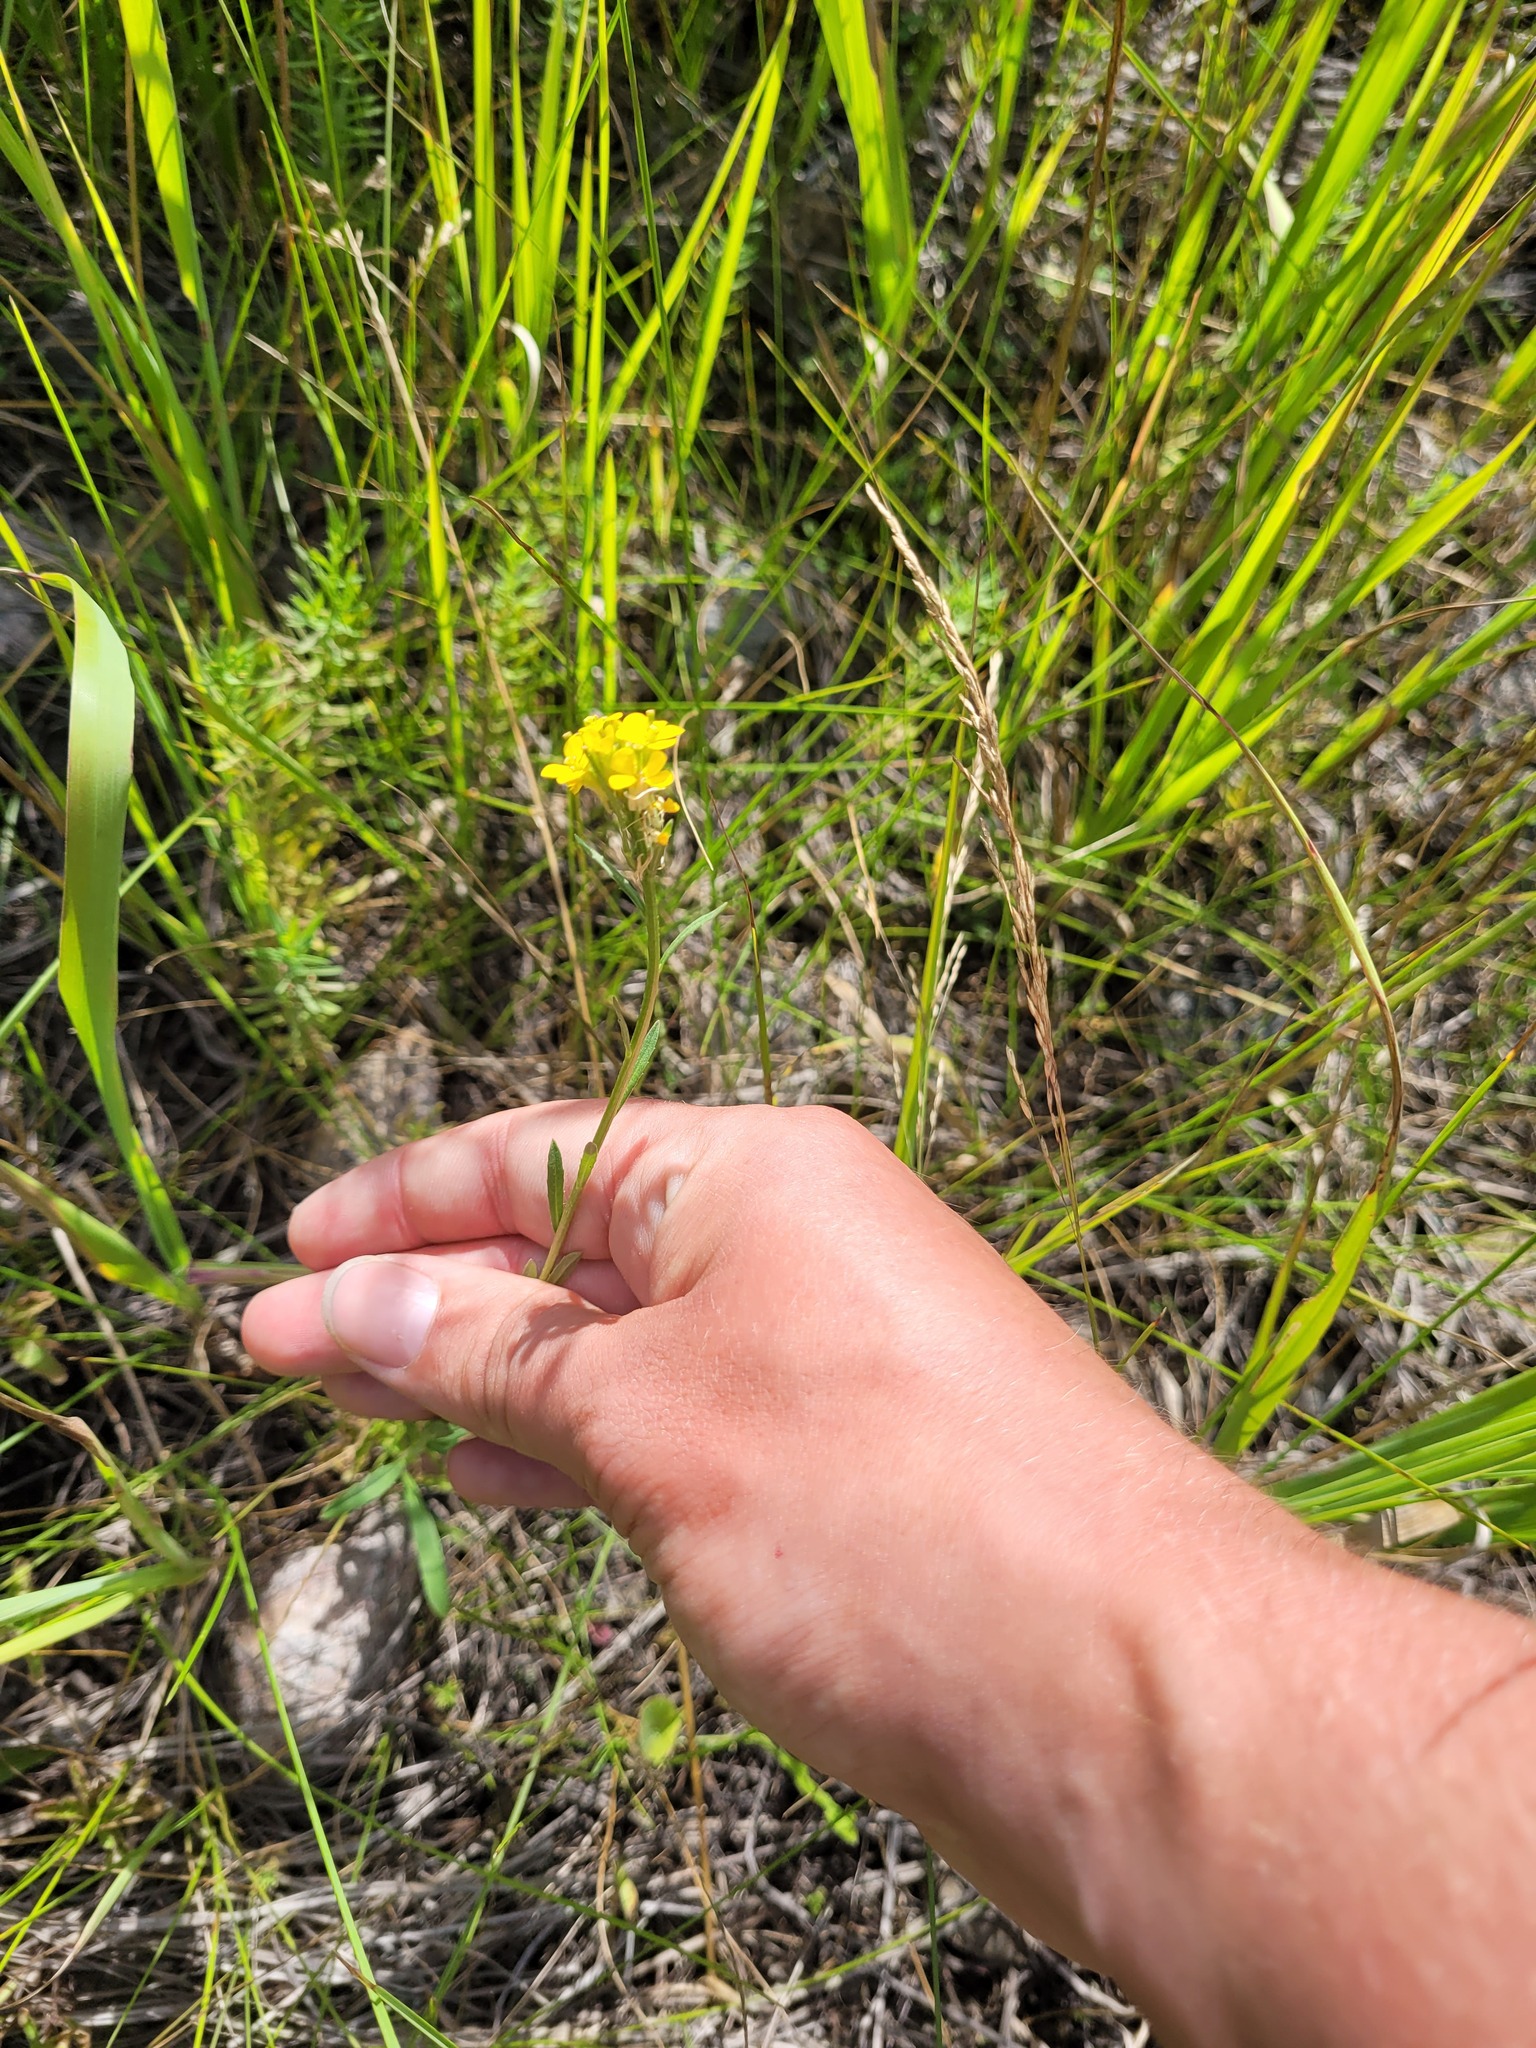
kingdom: Plantae
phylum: Tracheophyta
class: Magnoliopsida
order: Brassicales
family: Brassicaceae
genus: Erysimum
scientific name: Erysimum hieraciifolium
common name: European wallflower
